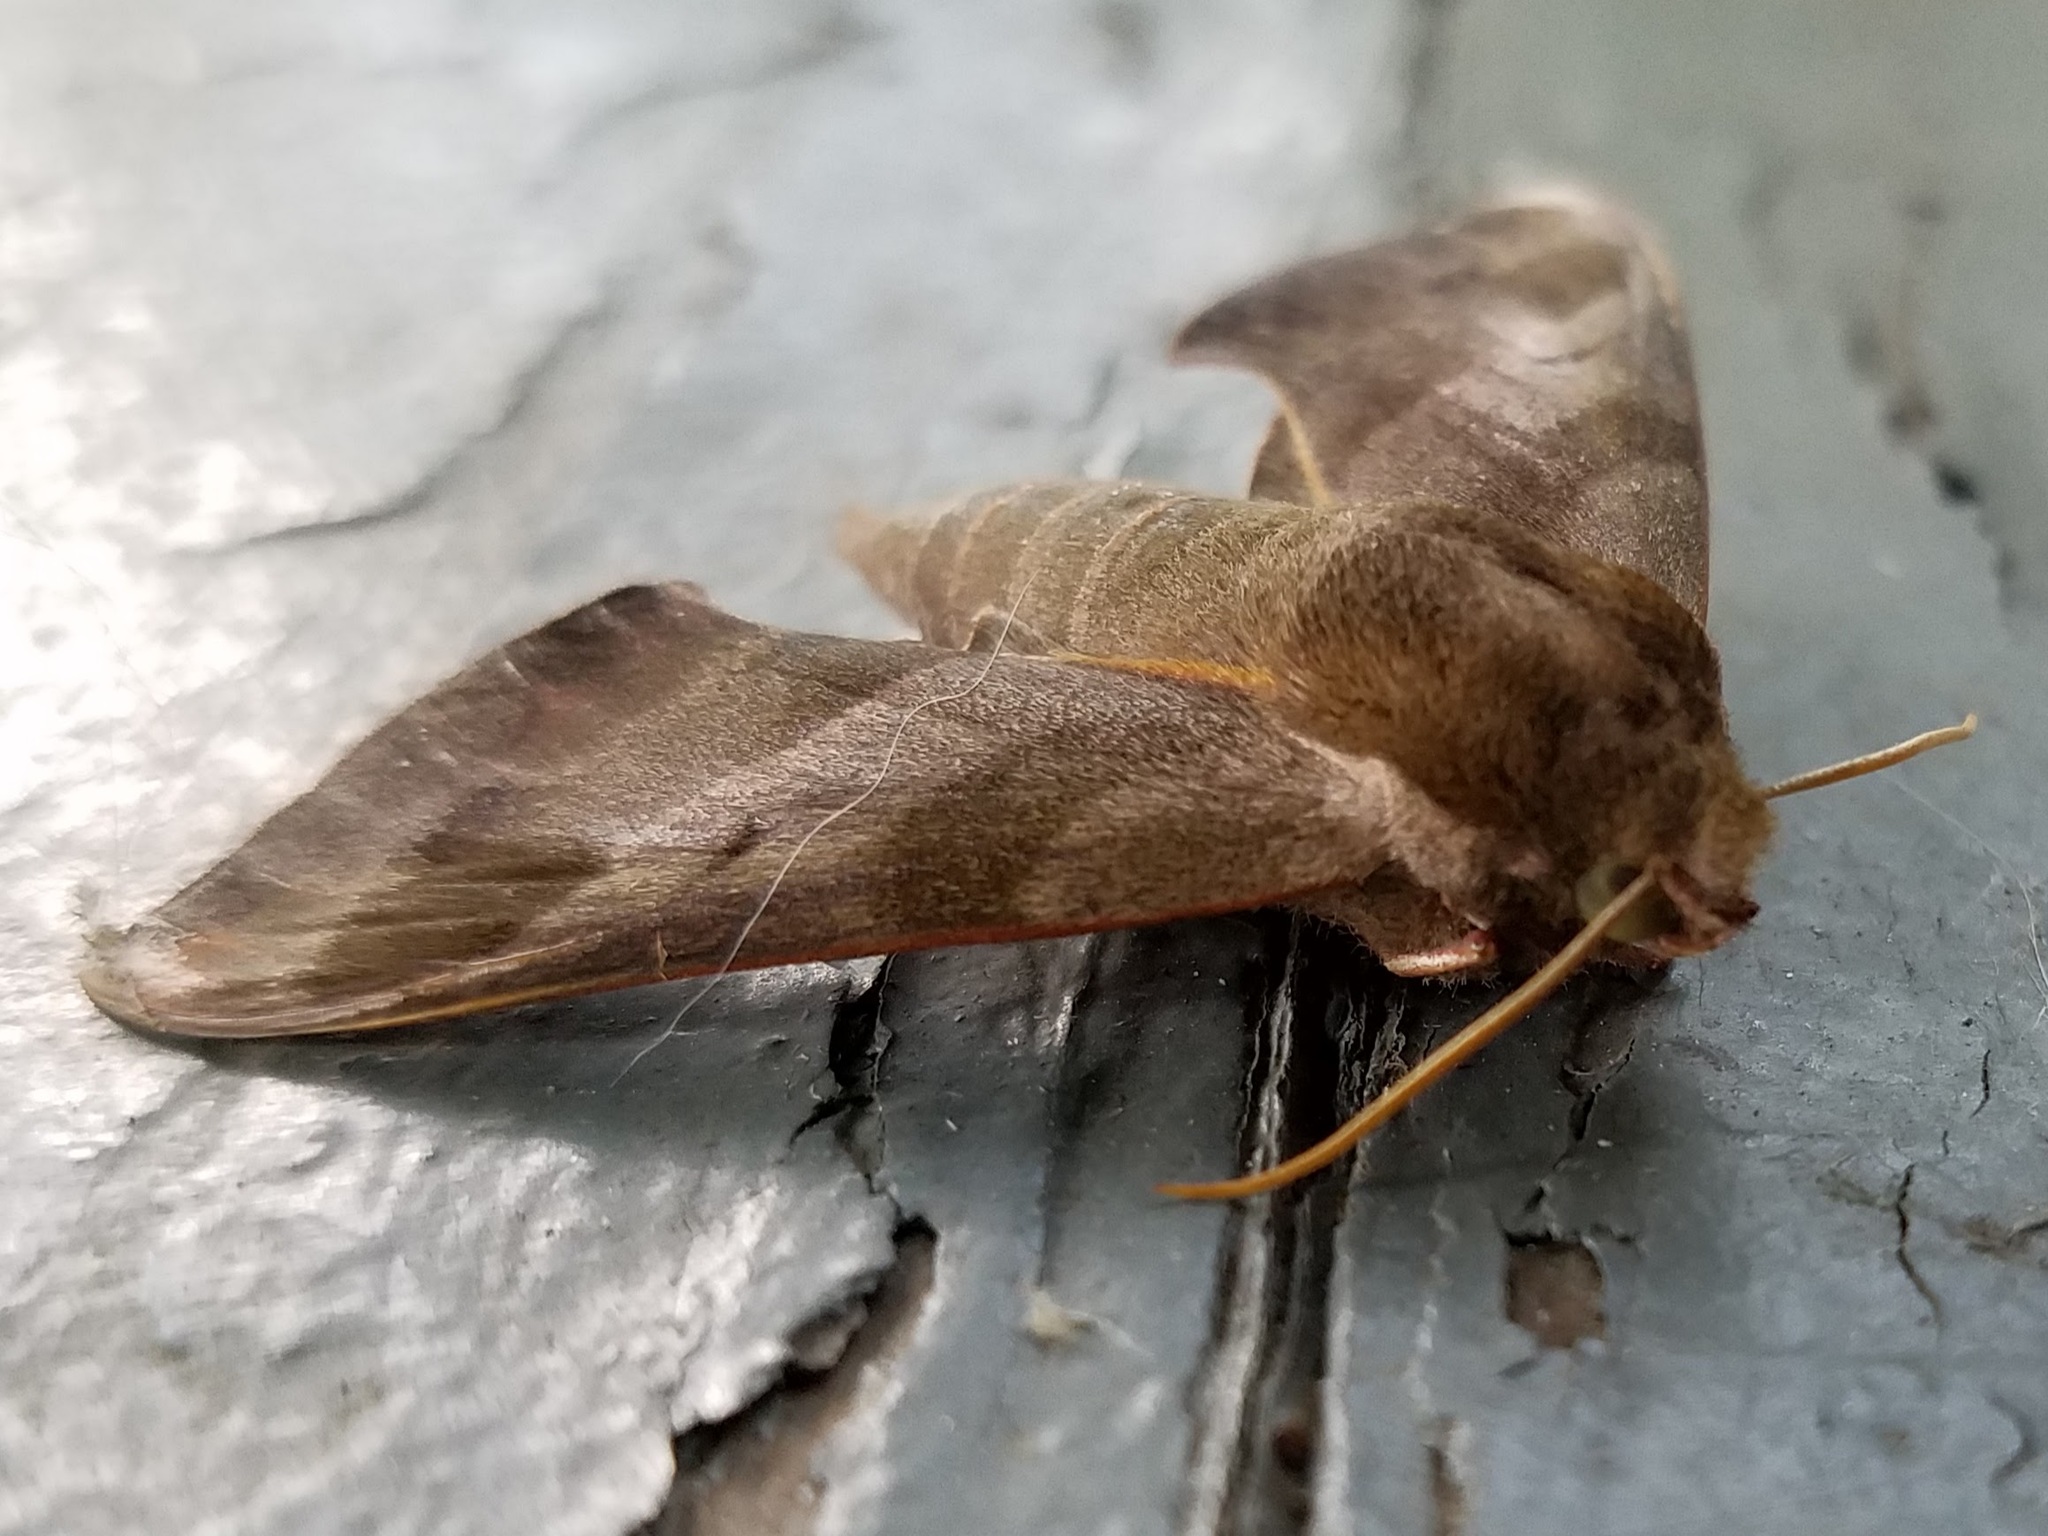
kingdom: Animalia
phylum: Arthropoda
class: Insecta
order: Lepidoptera
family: Sphingidae
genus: Darapsa
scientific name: Darapsa myron
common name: Hog sphinx
